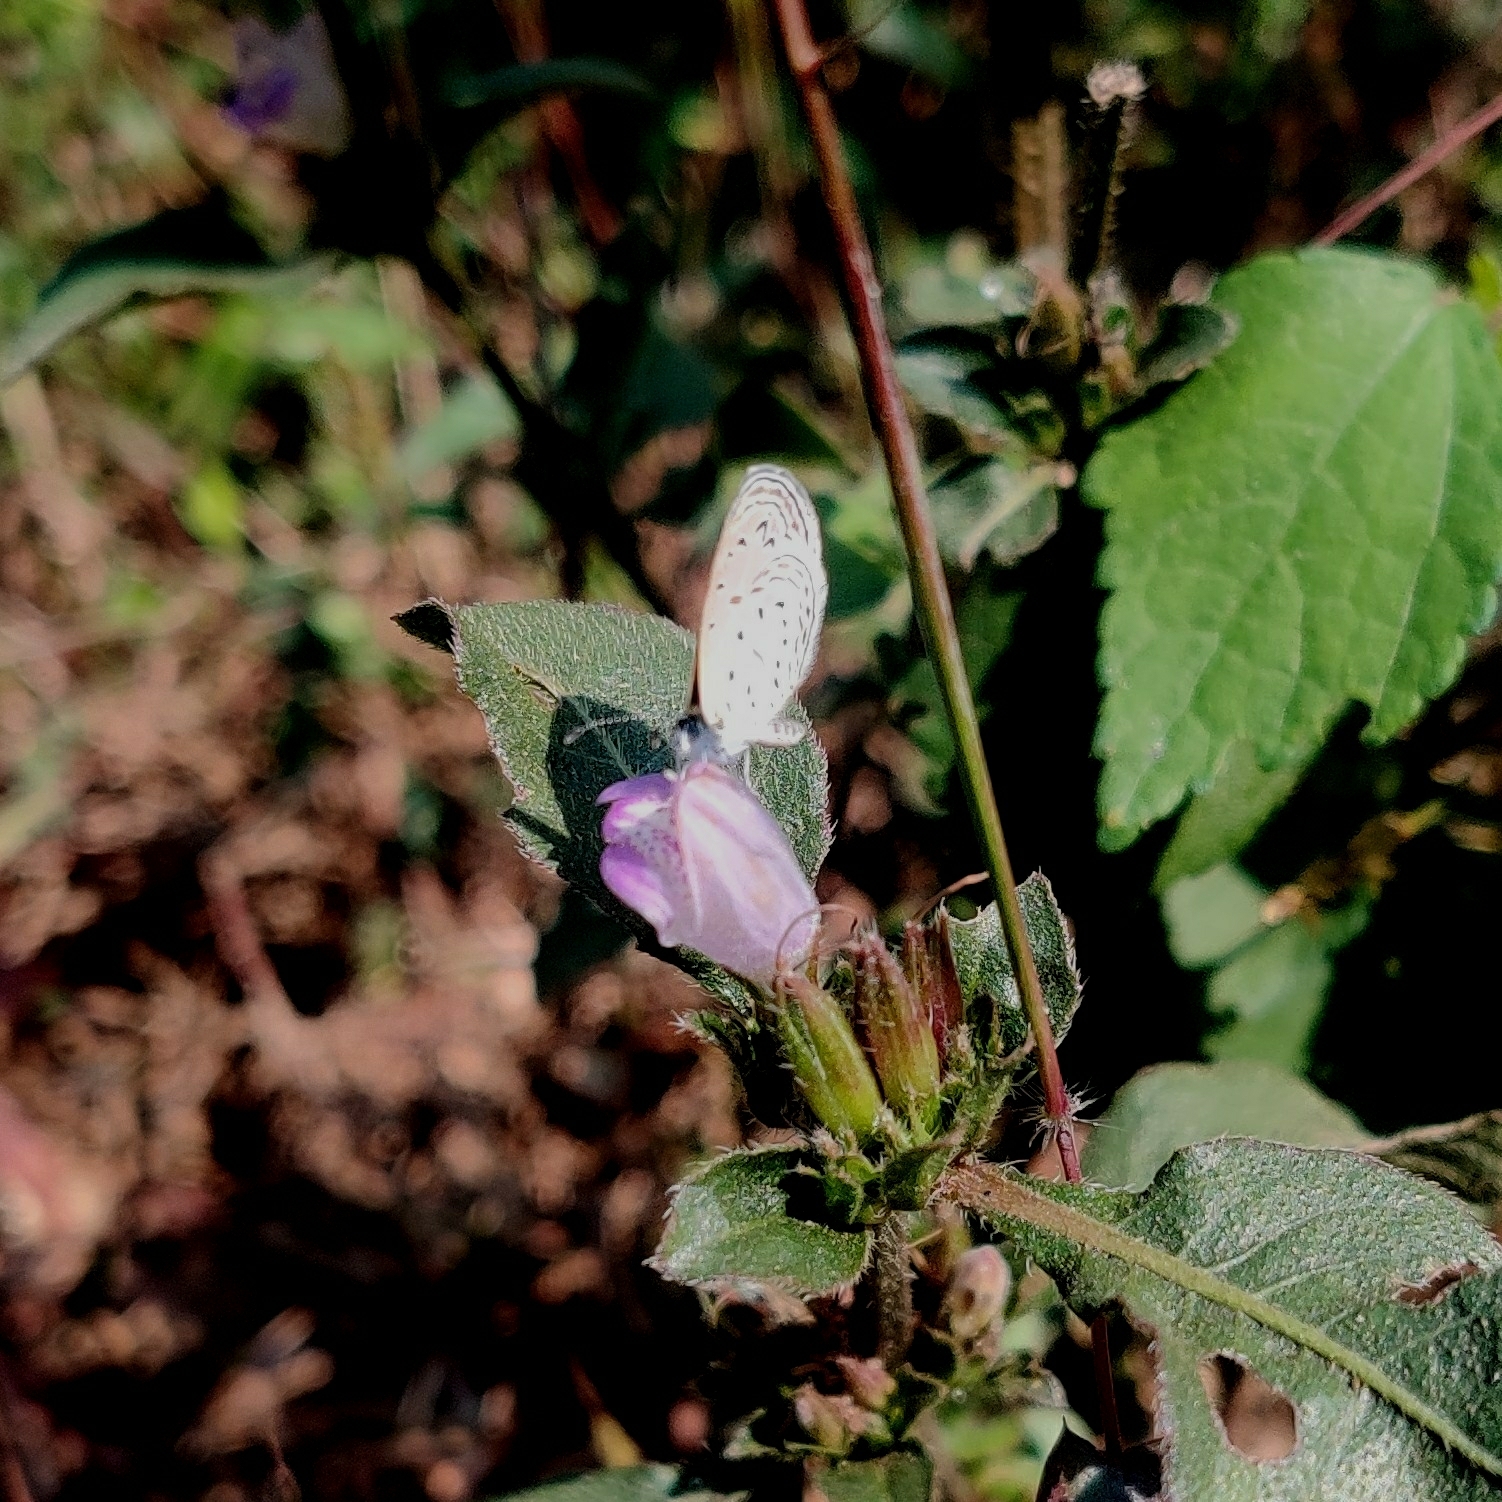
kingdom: Animalia
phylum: Arthropoda
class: Insecta
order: Lepidoptera
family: Lycaenidae
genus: Zizula
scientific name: Zizula hylax
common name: Gaika blue
